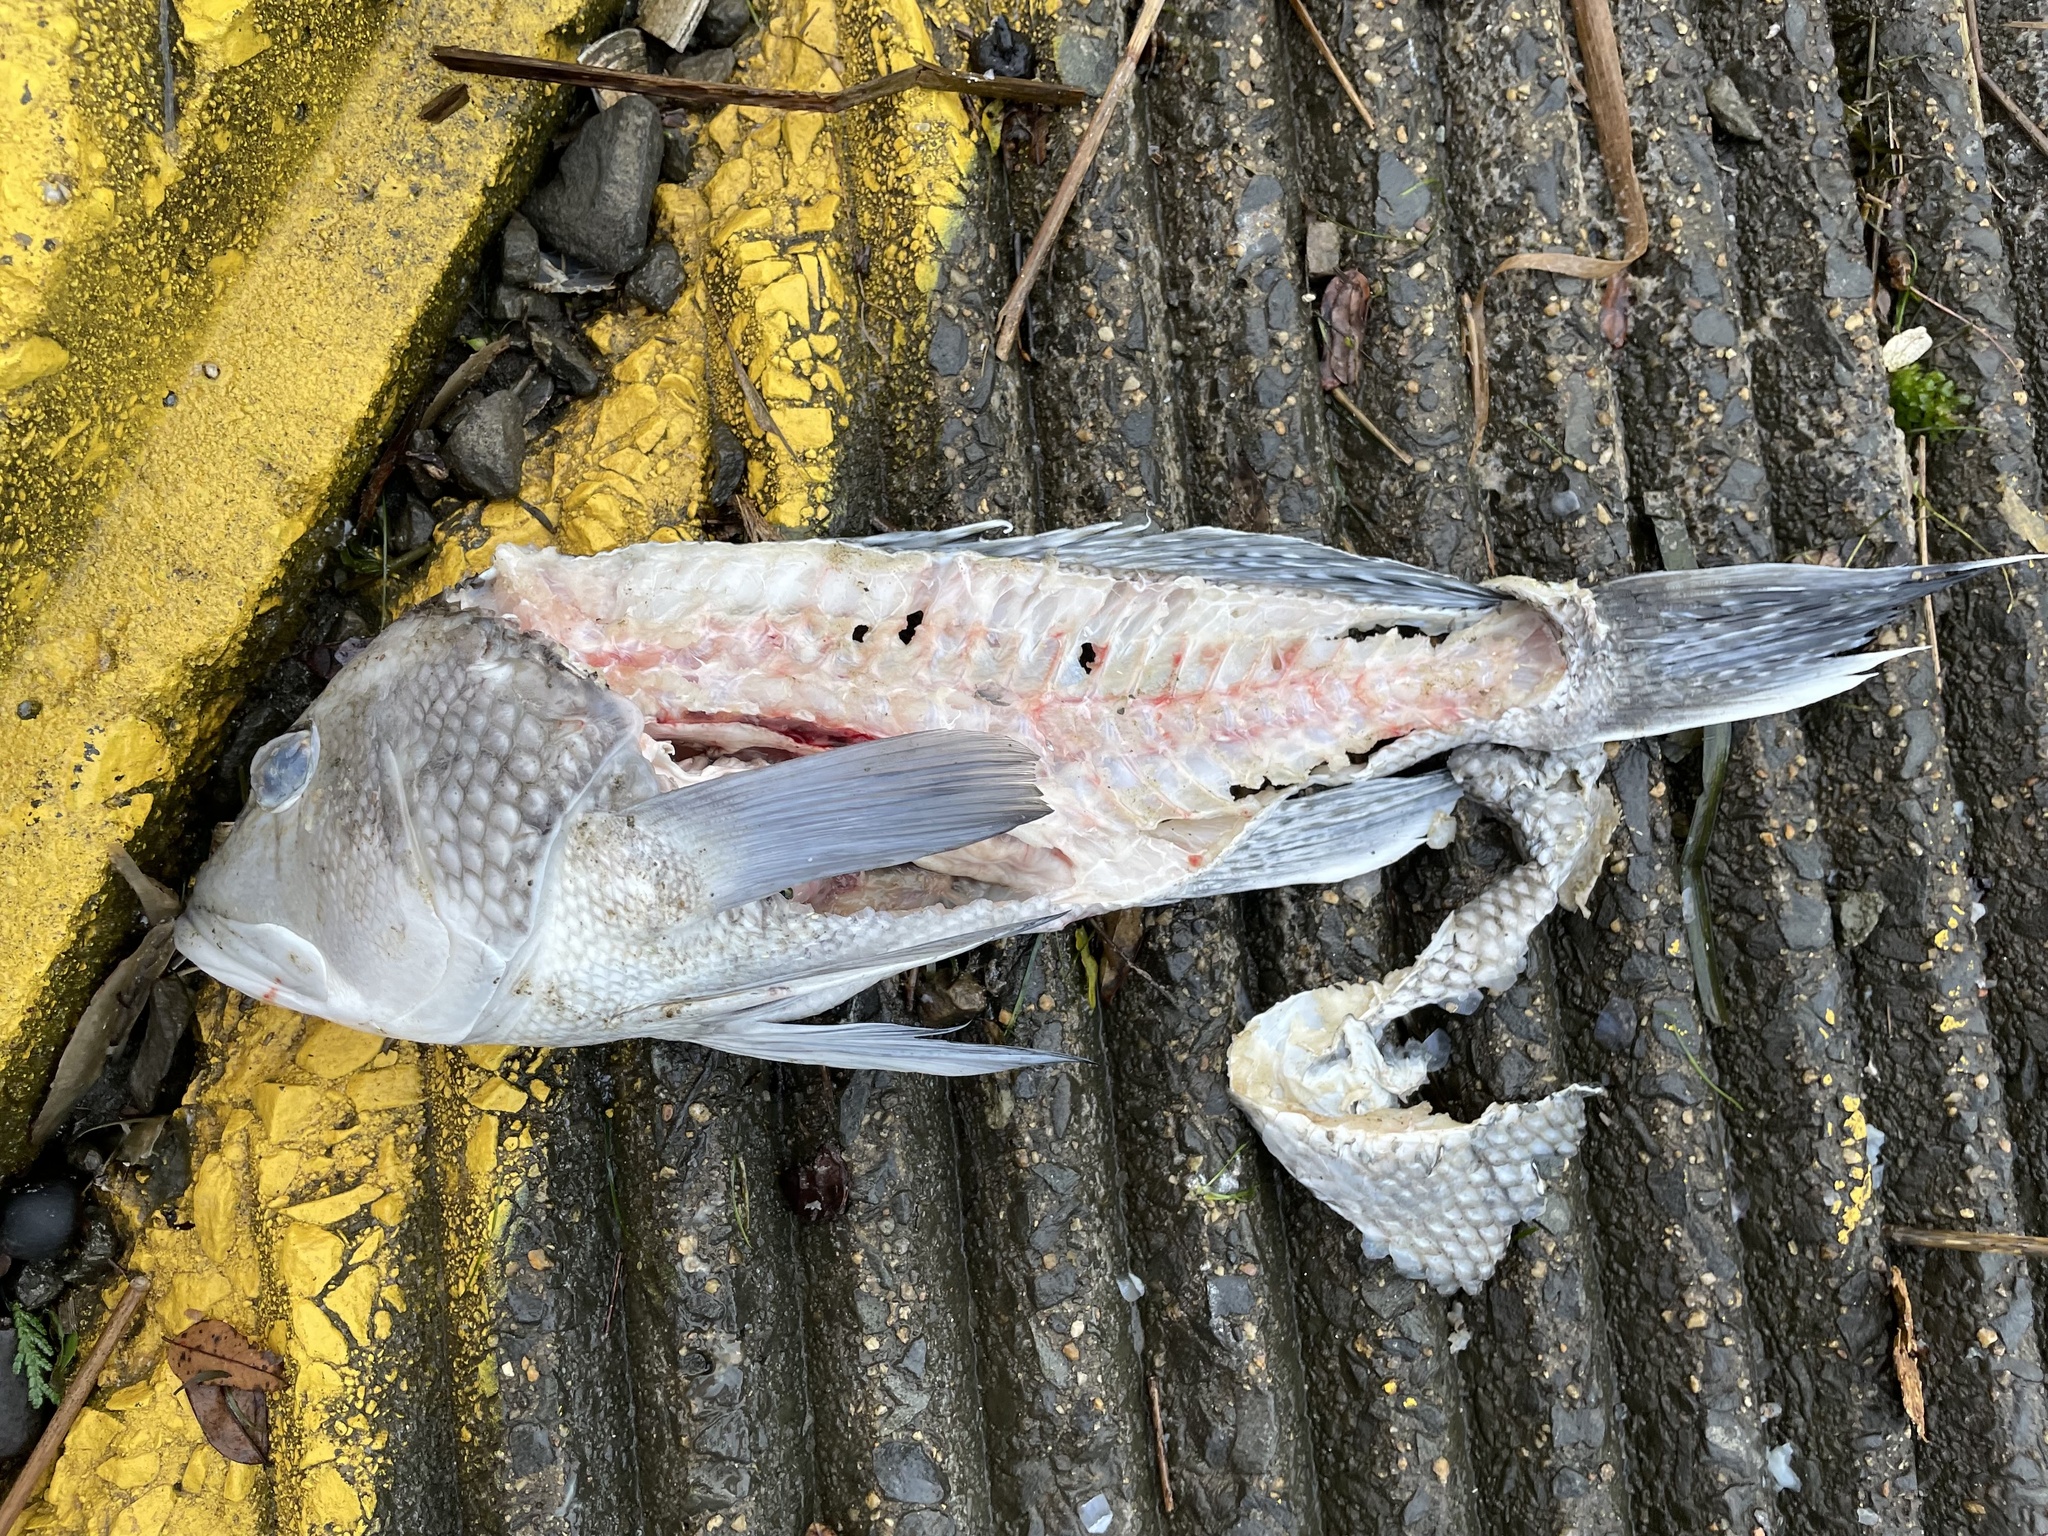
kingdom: Animalia
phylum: Chordata
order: Perciformes
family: Serranidae
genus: Centropristis
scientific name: Centropristis striata
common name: Black sea bass
